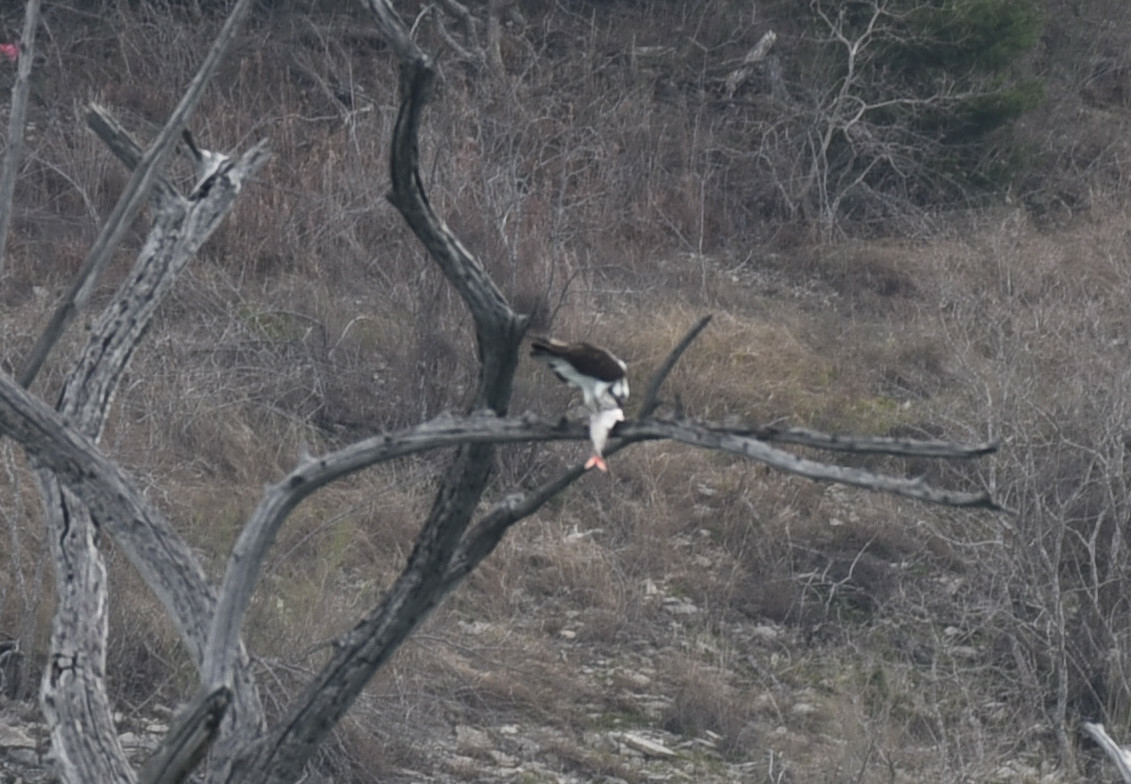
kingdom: Animalia
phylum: Chordata
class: Aves
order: Accipitriformes
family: Pandionidae
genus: Pandion
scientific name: Pandion haliaetus
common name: Osprey
